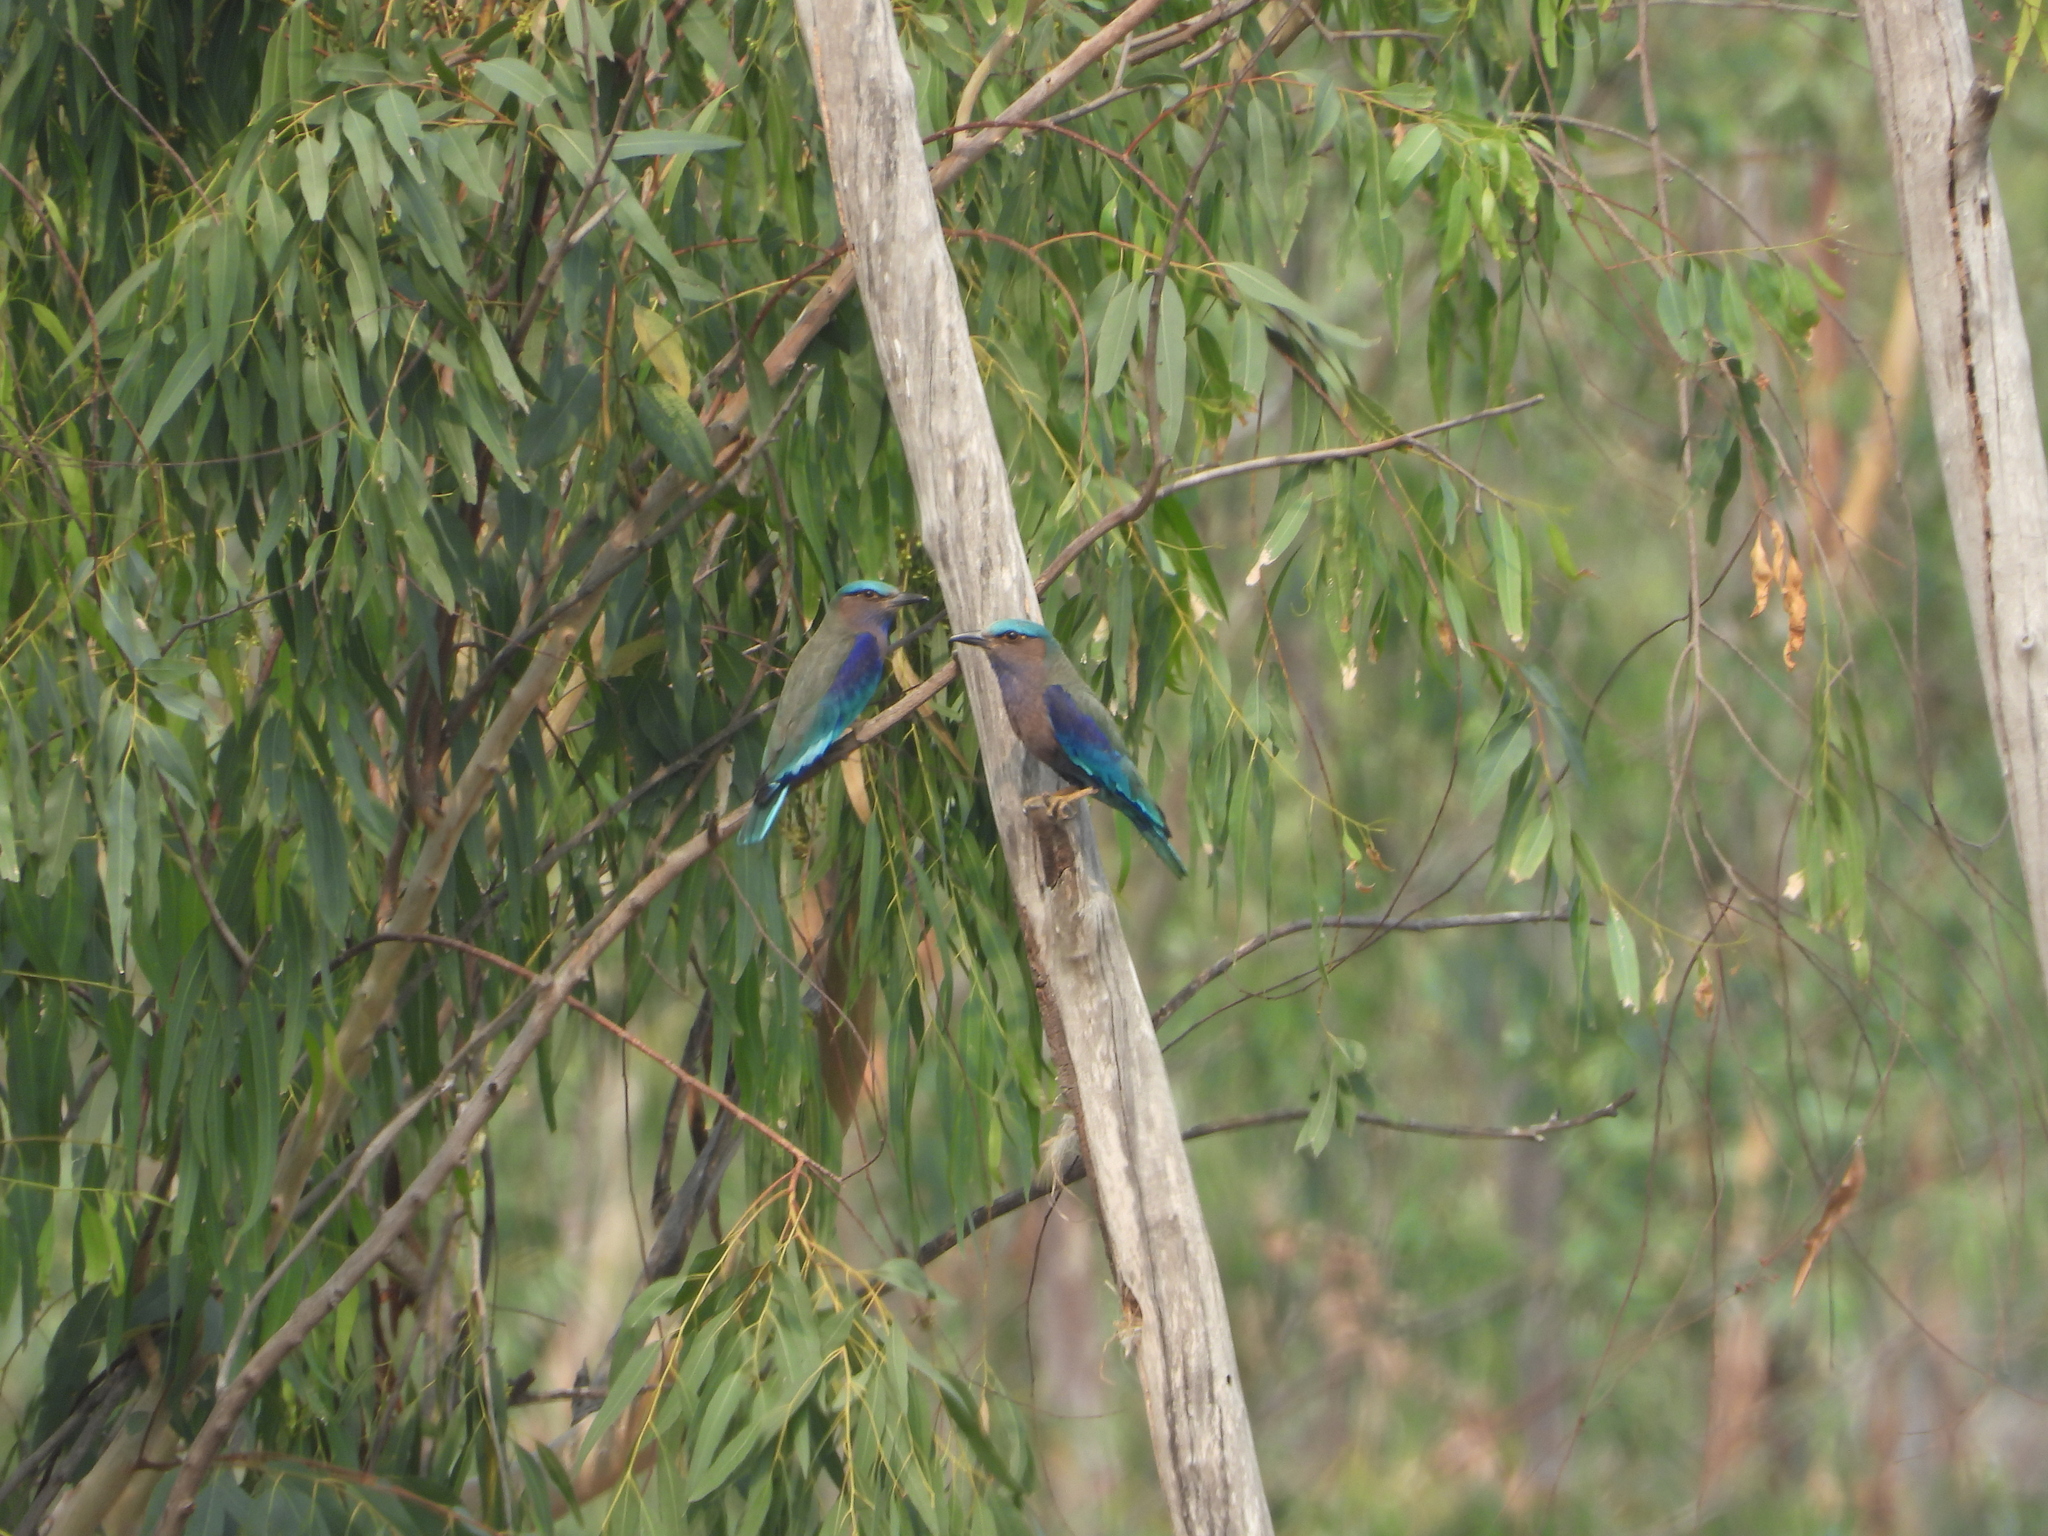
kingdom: Animalia
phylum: Chordata
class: Aves
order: Coraciiformes
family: Coraciidae
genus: Coracias
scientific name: Coracias affinis
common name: Indochinese roller
